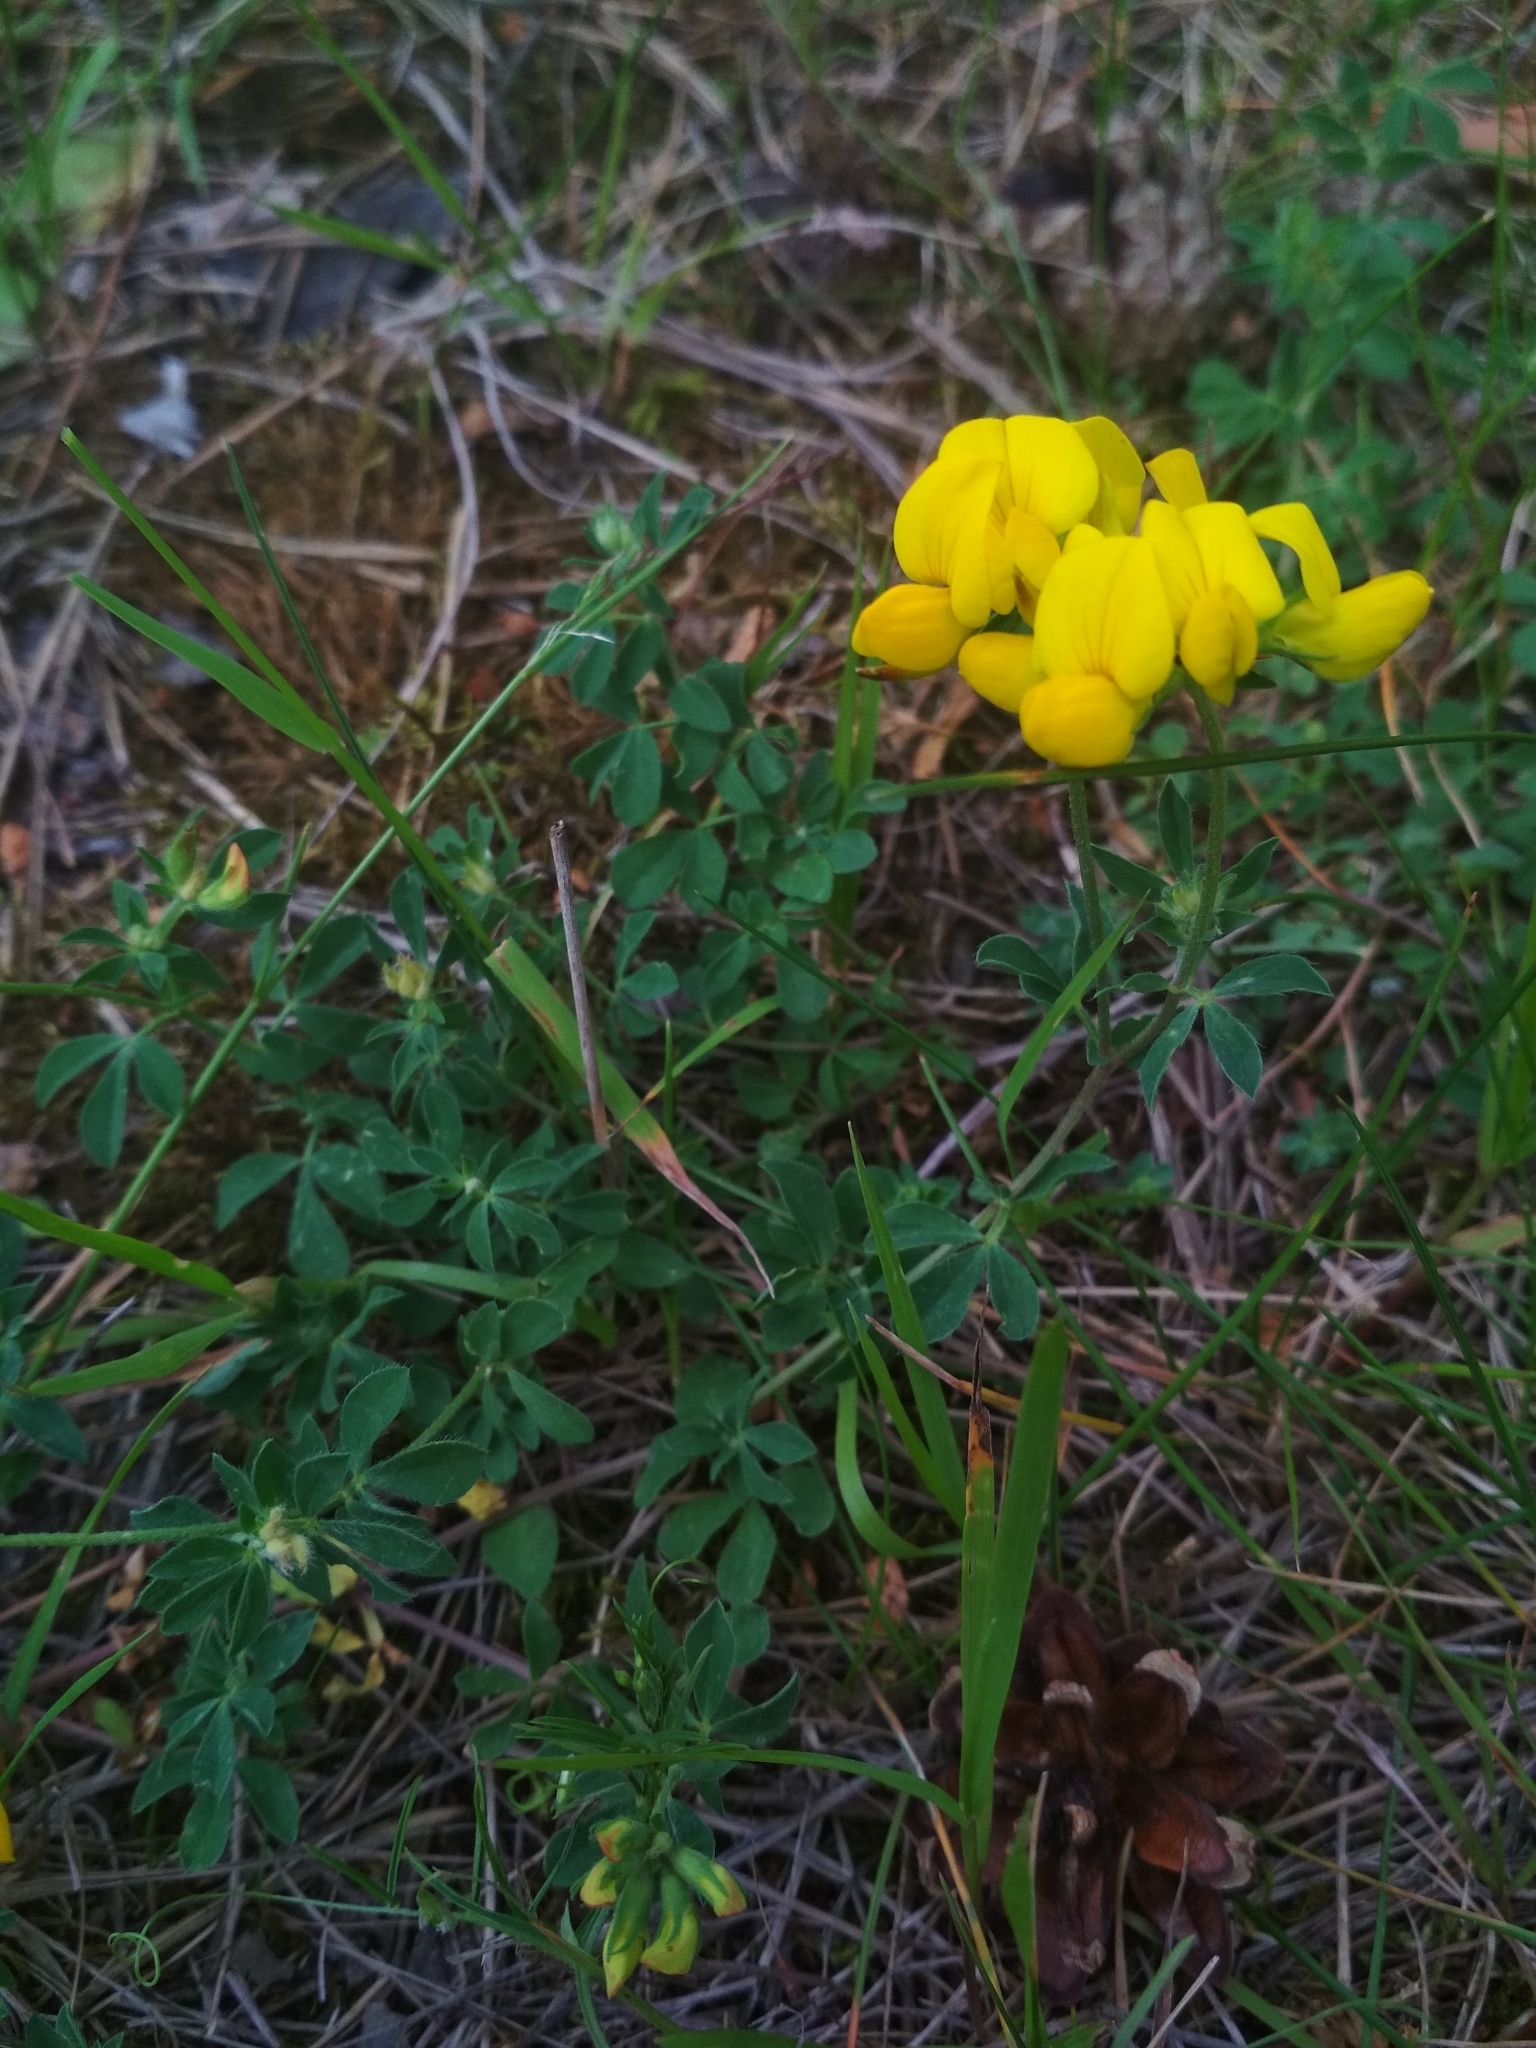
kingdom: Plantae
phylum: Tracheophyta
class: Magnoliopsida
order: Fabales
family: Fabaceae
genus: Lotus
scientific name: Lotus corniculatus
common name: Common bird's-foot-trefoil
